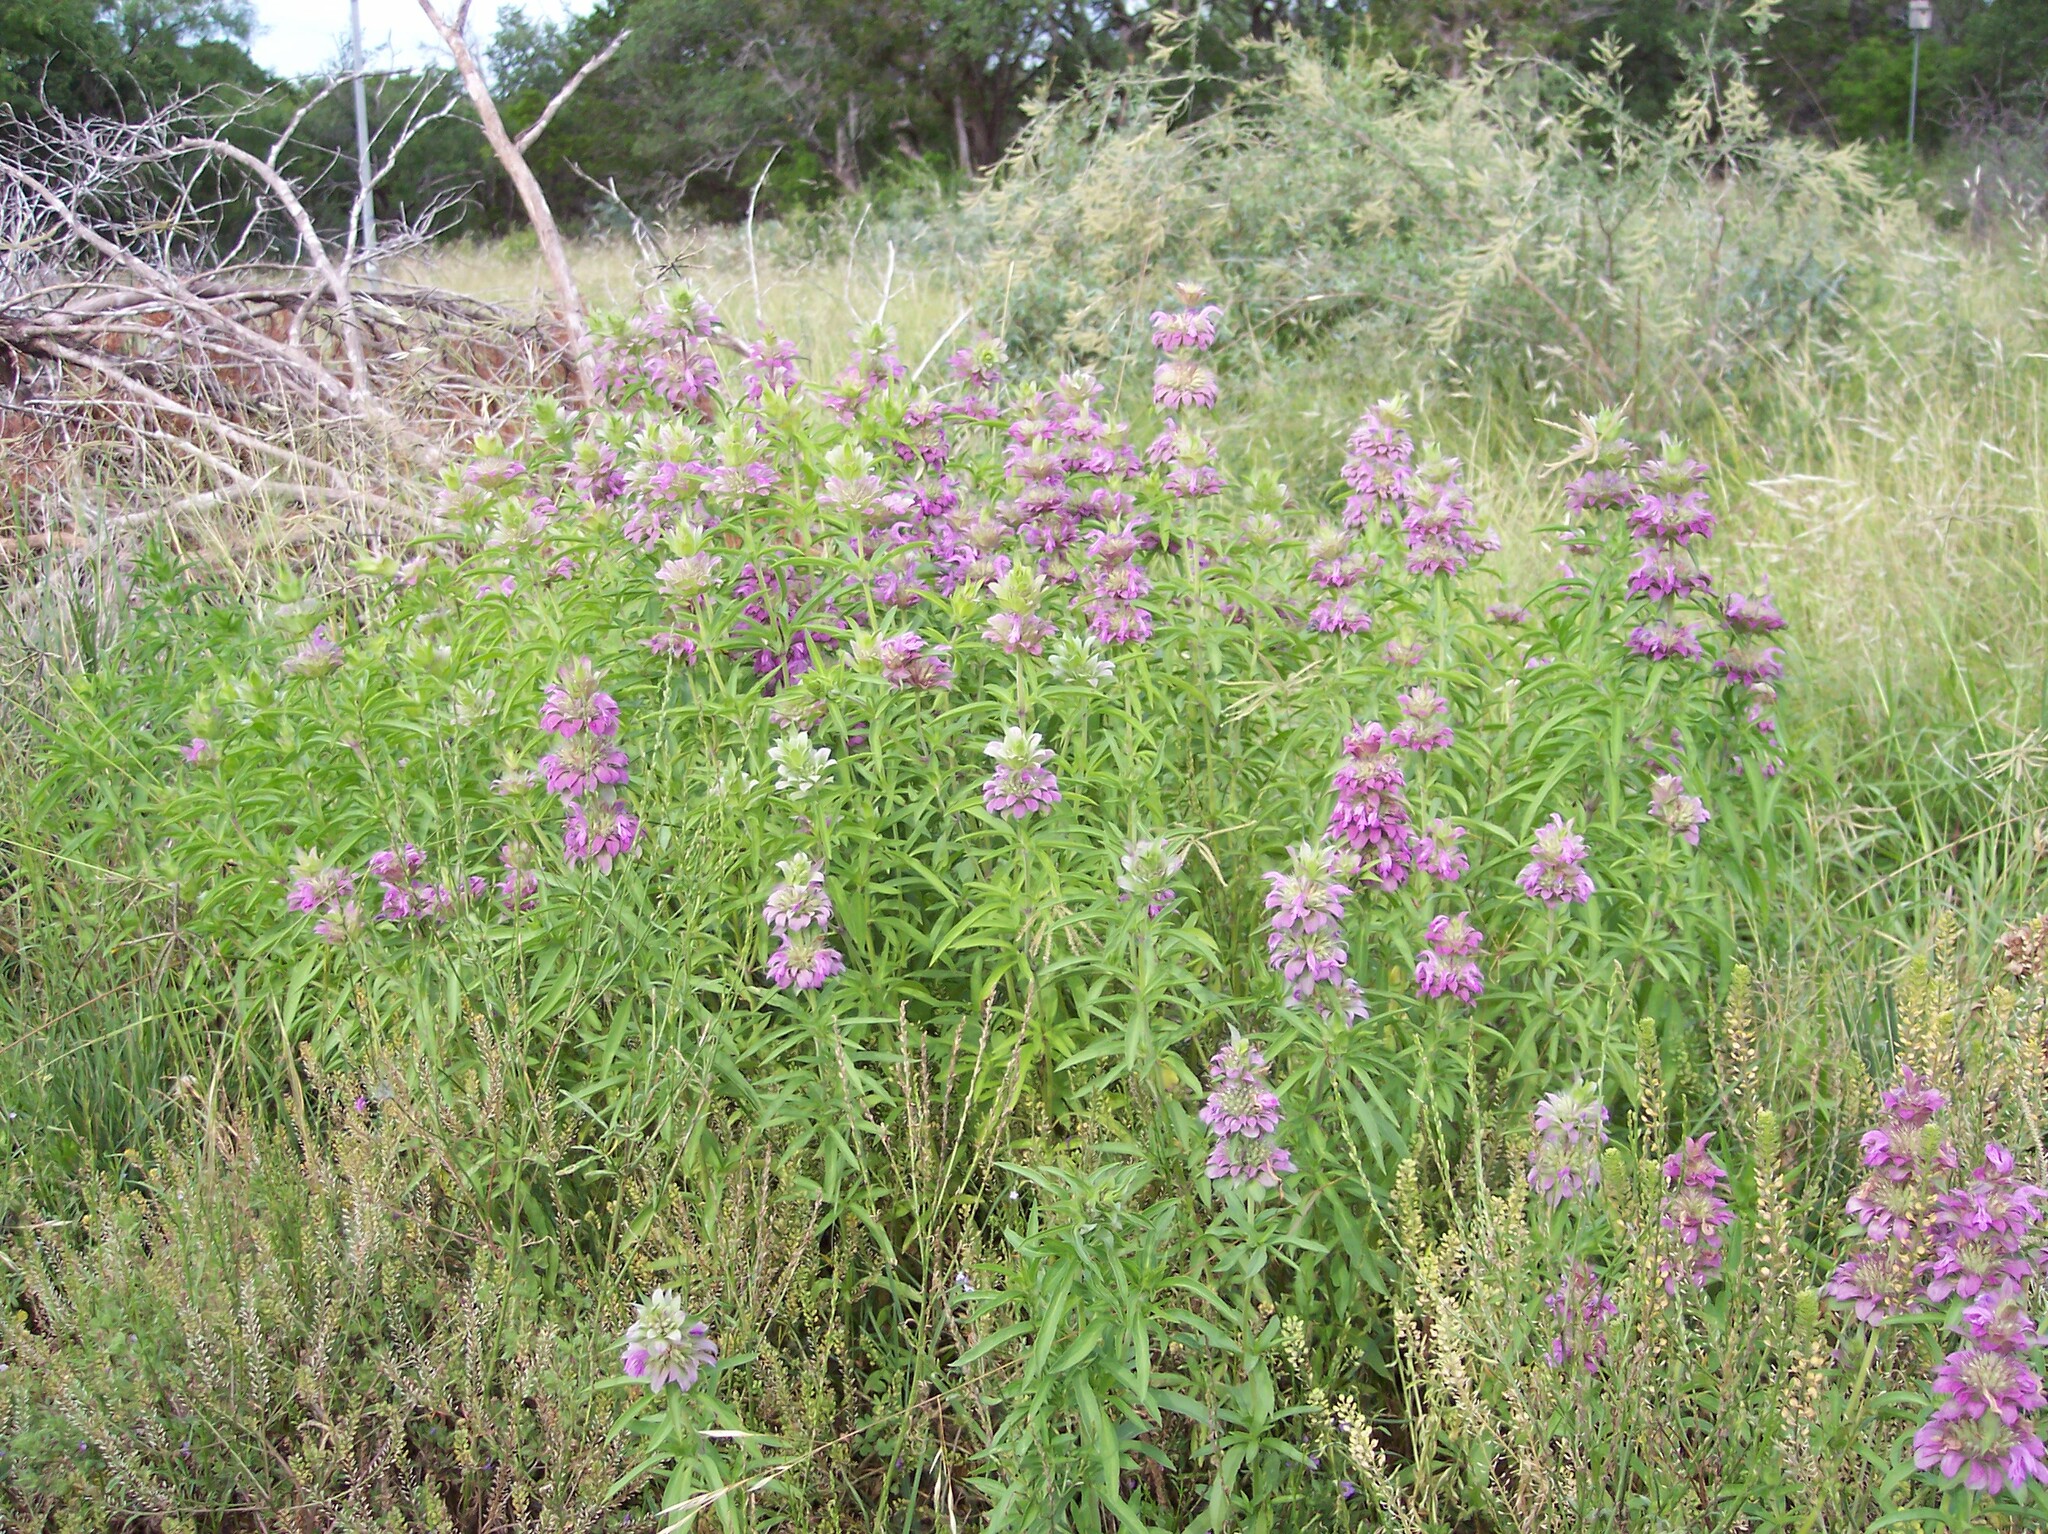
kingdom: Plantae
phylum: Tracheophyta
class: Magnoliopsida
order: Lamiales
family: Lamiaceae
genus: Monarda
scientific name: Monarda citriodora
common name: Lemon beebalm
